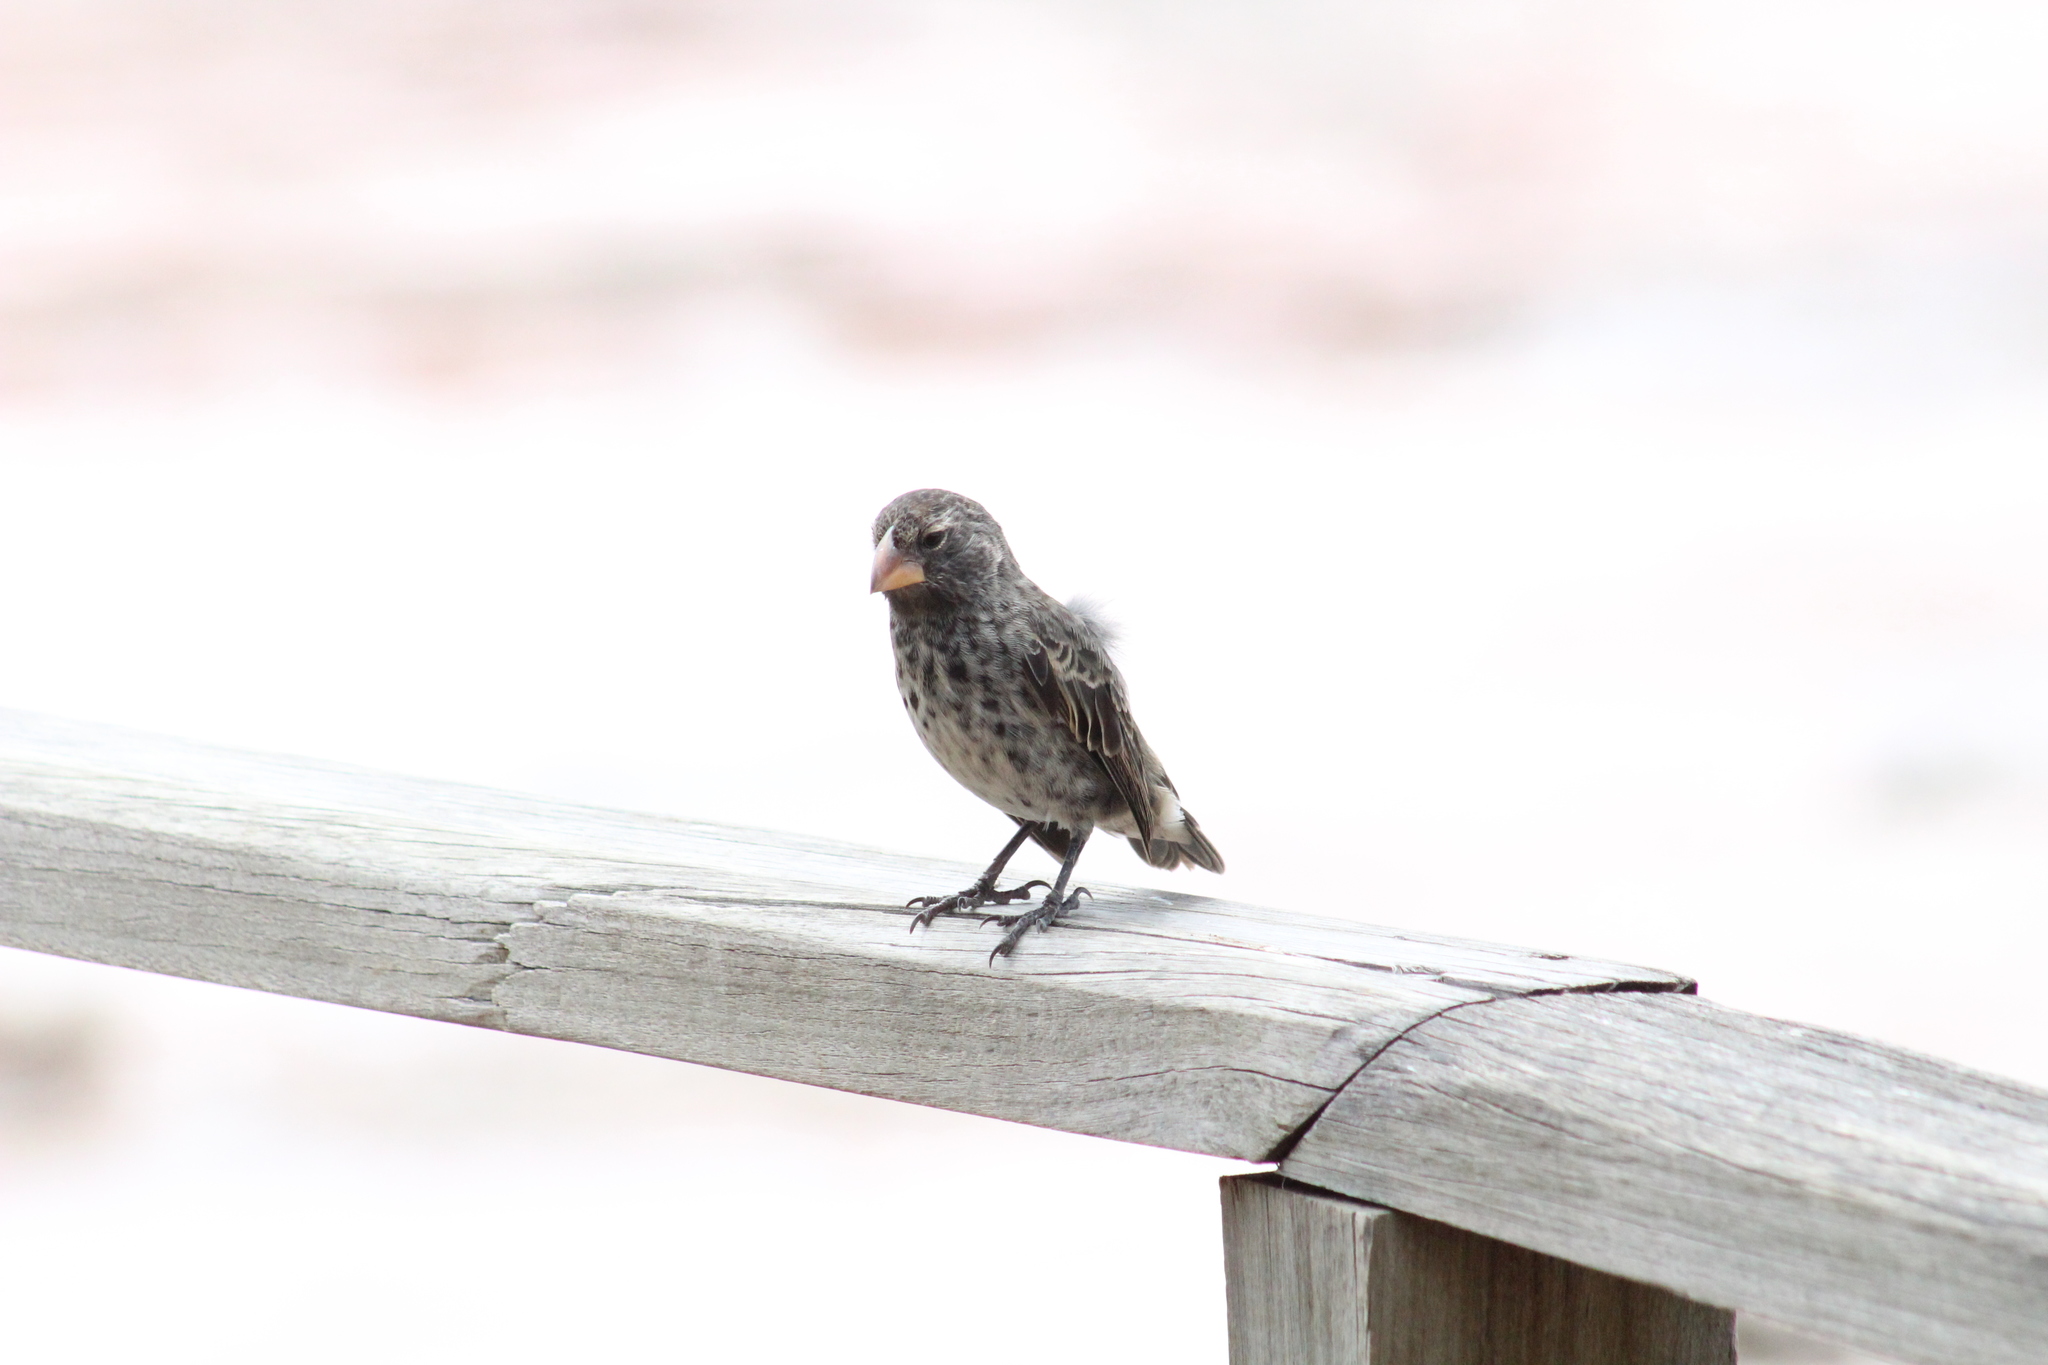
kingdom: Animalia
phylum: Chordata
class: Aves
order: Passeriformes
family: Thraupidae
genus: Geospiza
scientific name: Geospiza magnirostris
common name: Large ground-finch
